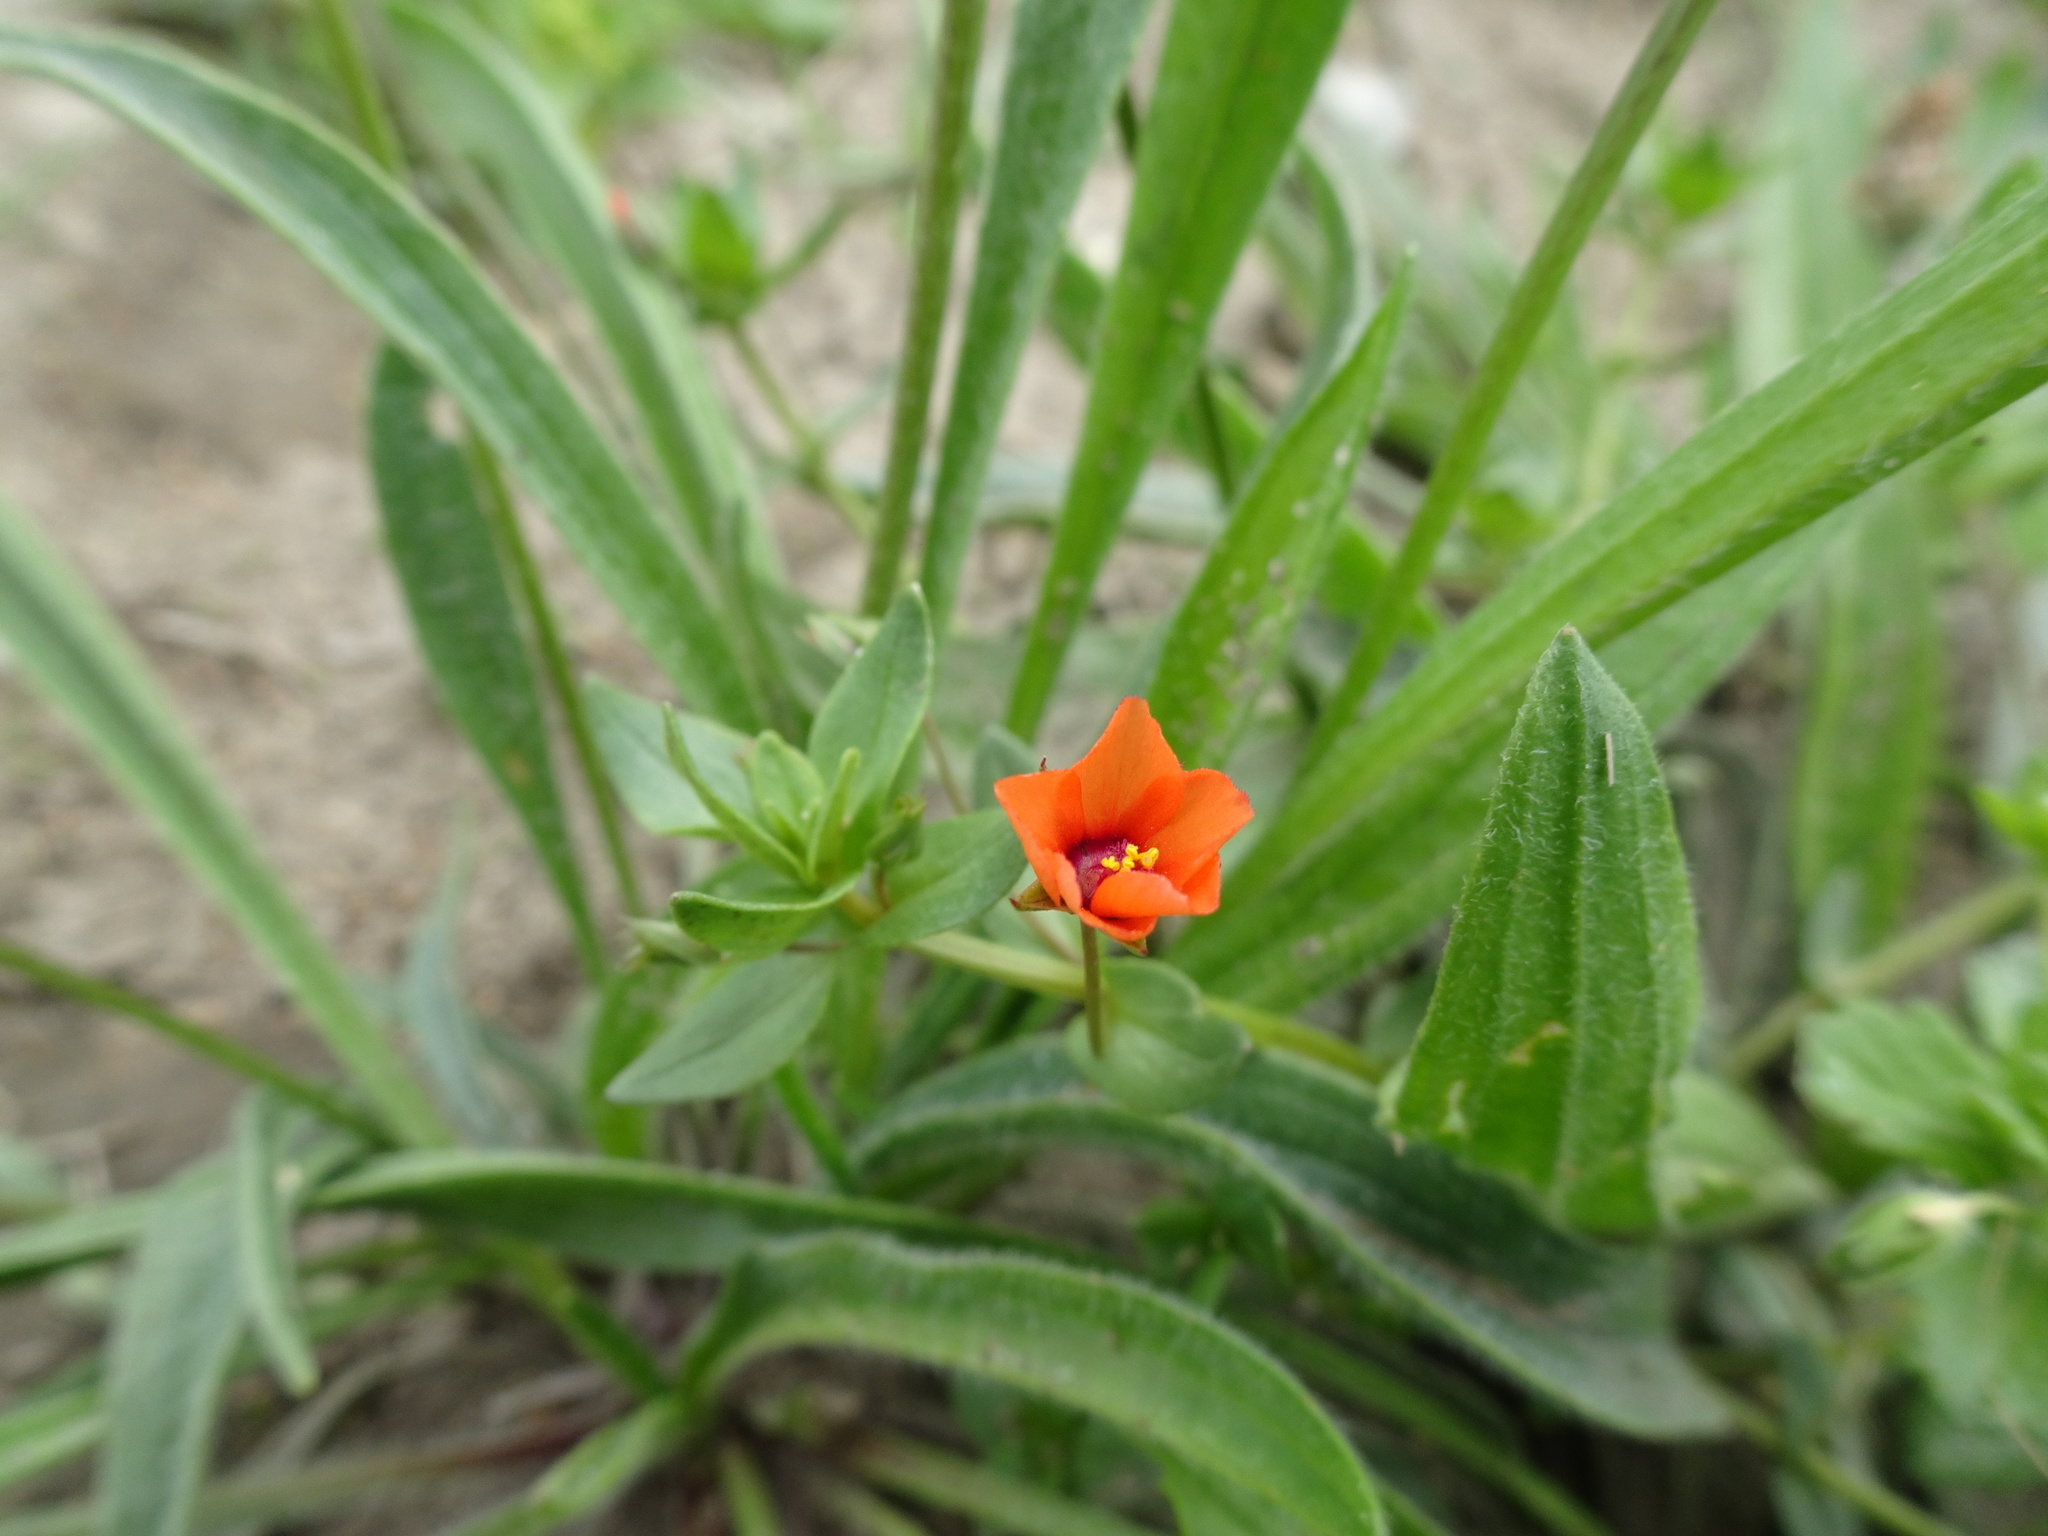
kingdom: Plantae
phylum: Tracheophyta
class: Magnoliopsida
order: Ericales
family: Primulaceae
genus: Lysimachia
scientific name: Lysimachia arvensis
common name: Scarlet pimpernel
